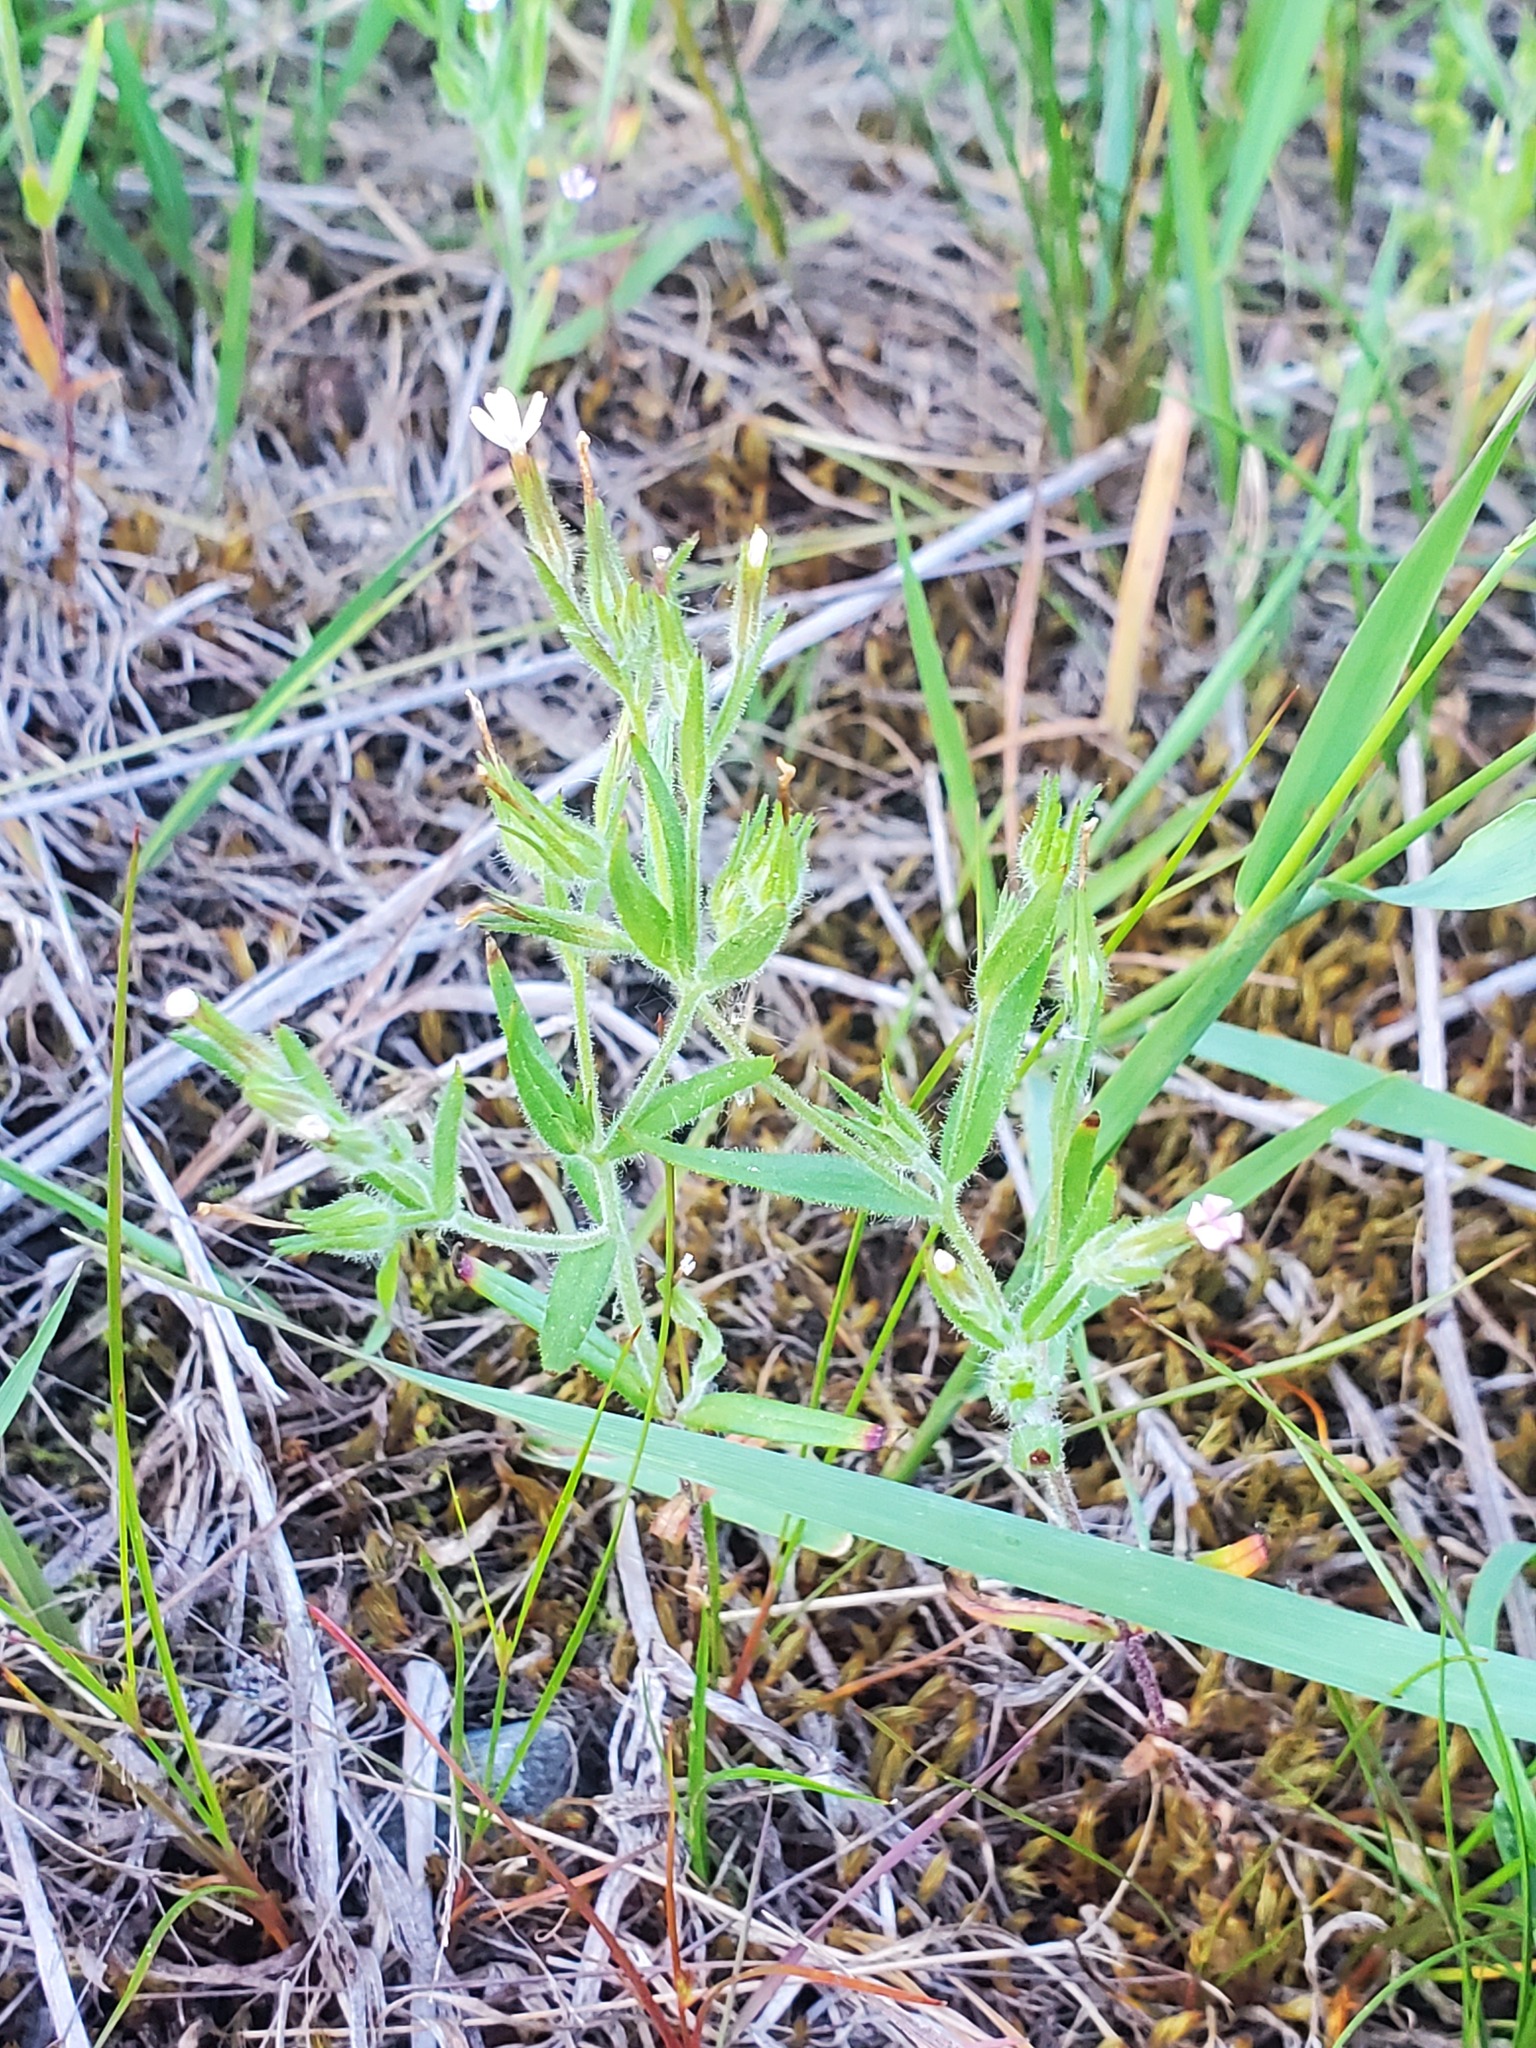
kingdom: Plantae
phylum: Tracheophyta
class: Magnoliopsida
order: Ericales
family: Polemoniaceae
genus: Phlox
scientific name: Phlox gracilis
